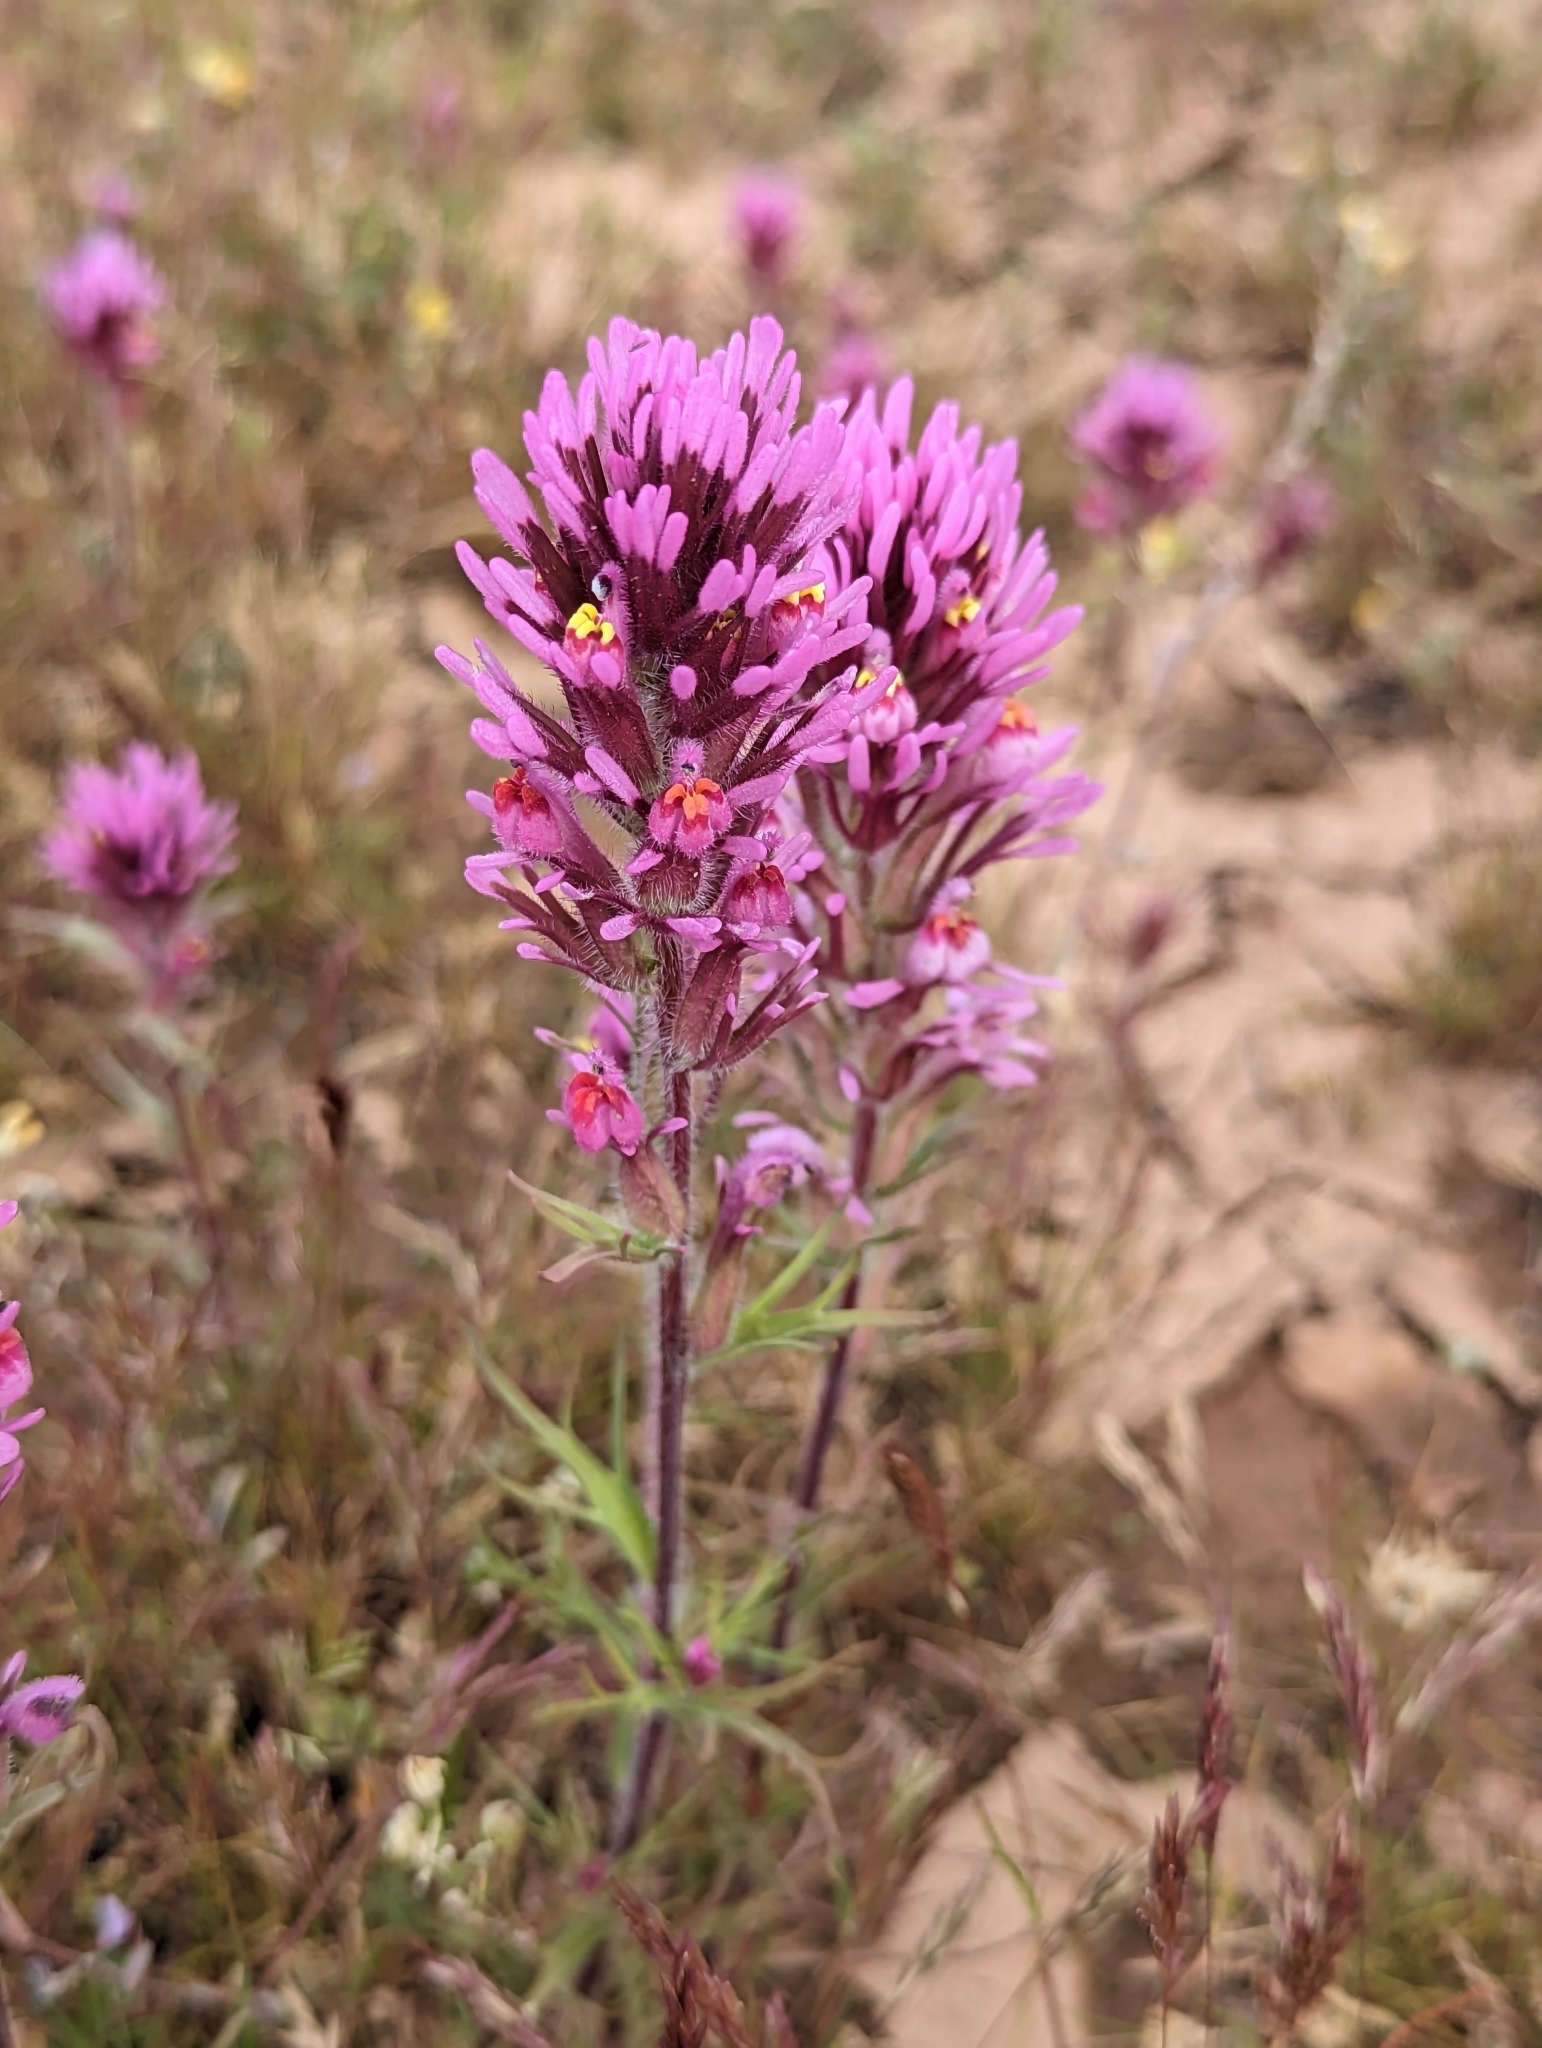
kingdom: Plantae
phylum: Tracheophyta
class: Magnoliopsida
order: Lamiales
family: Orobanchaceae
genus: Castilleja
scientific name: Castilleja exserta
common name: Purple owl-clover
